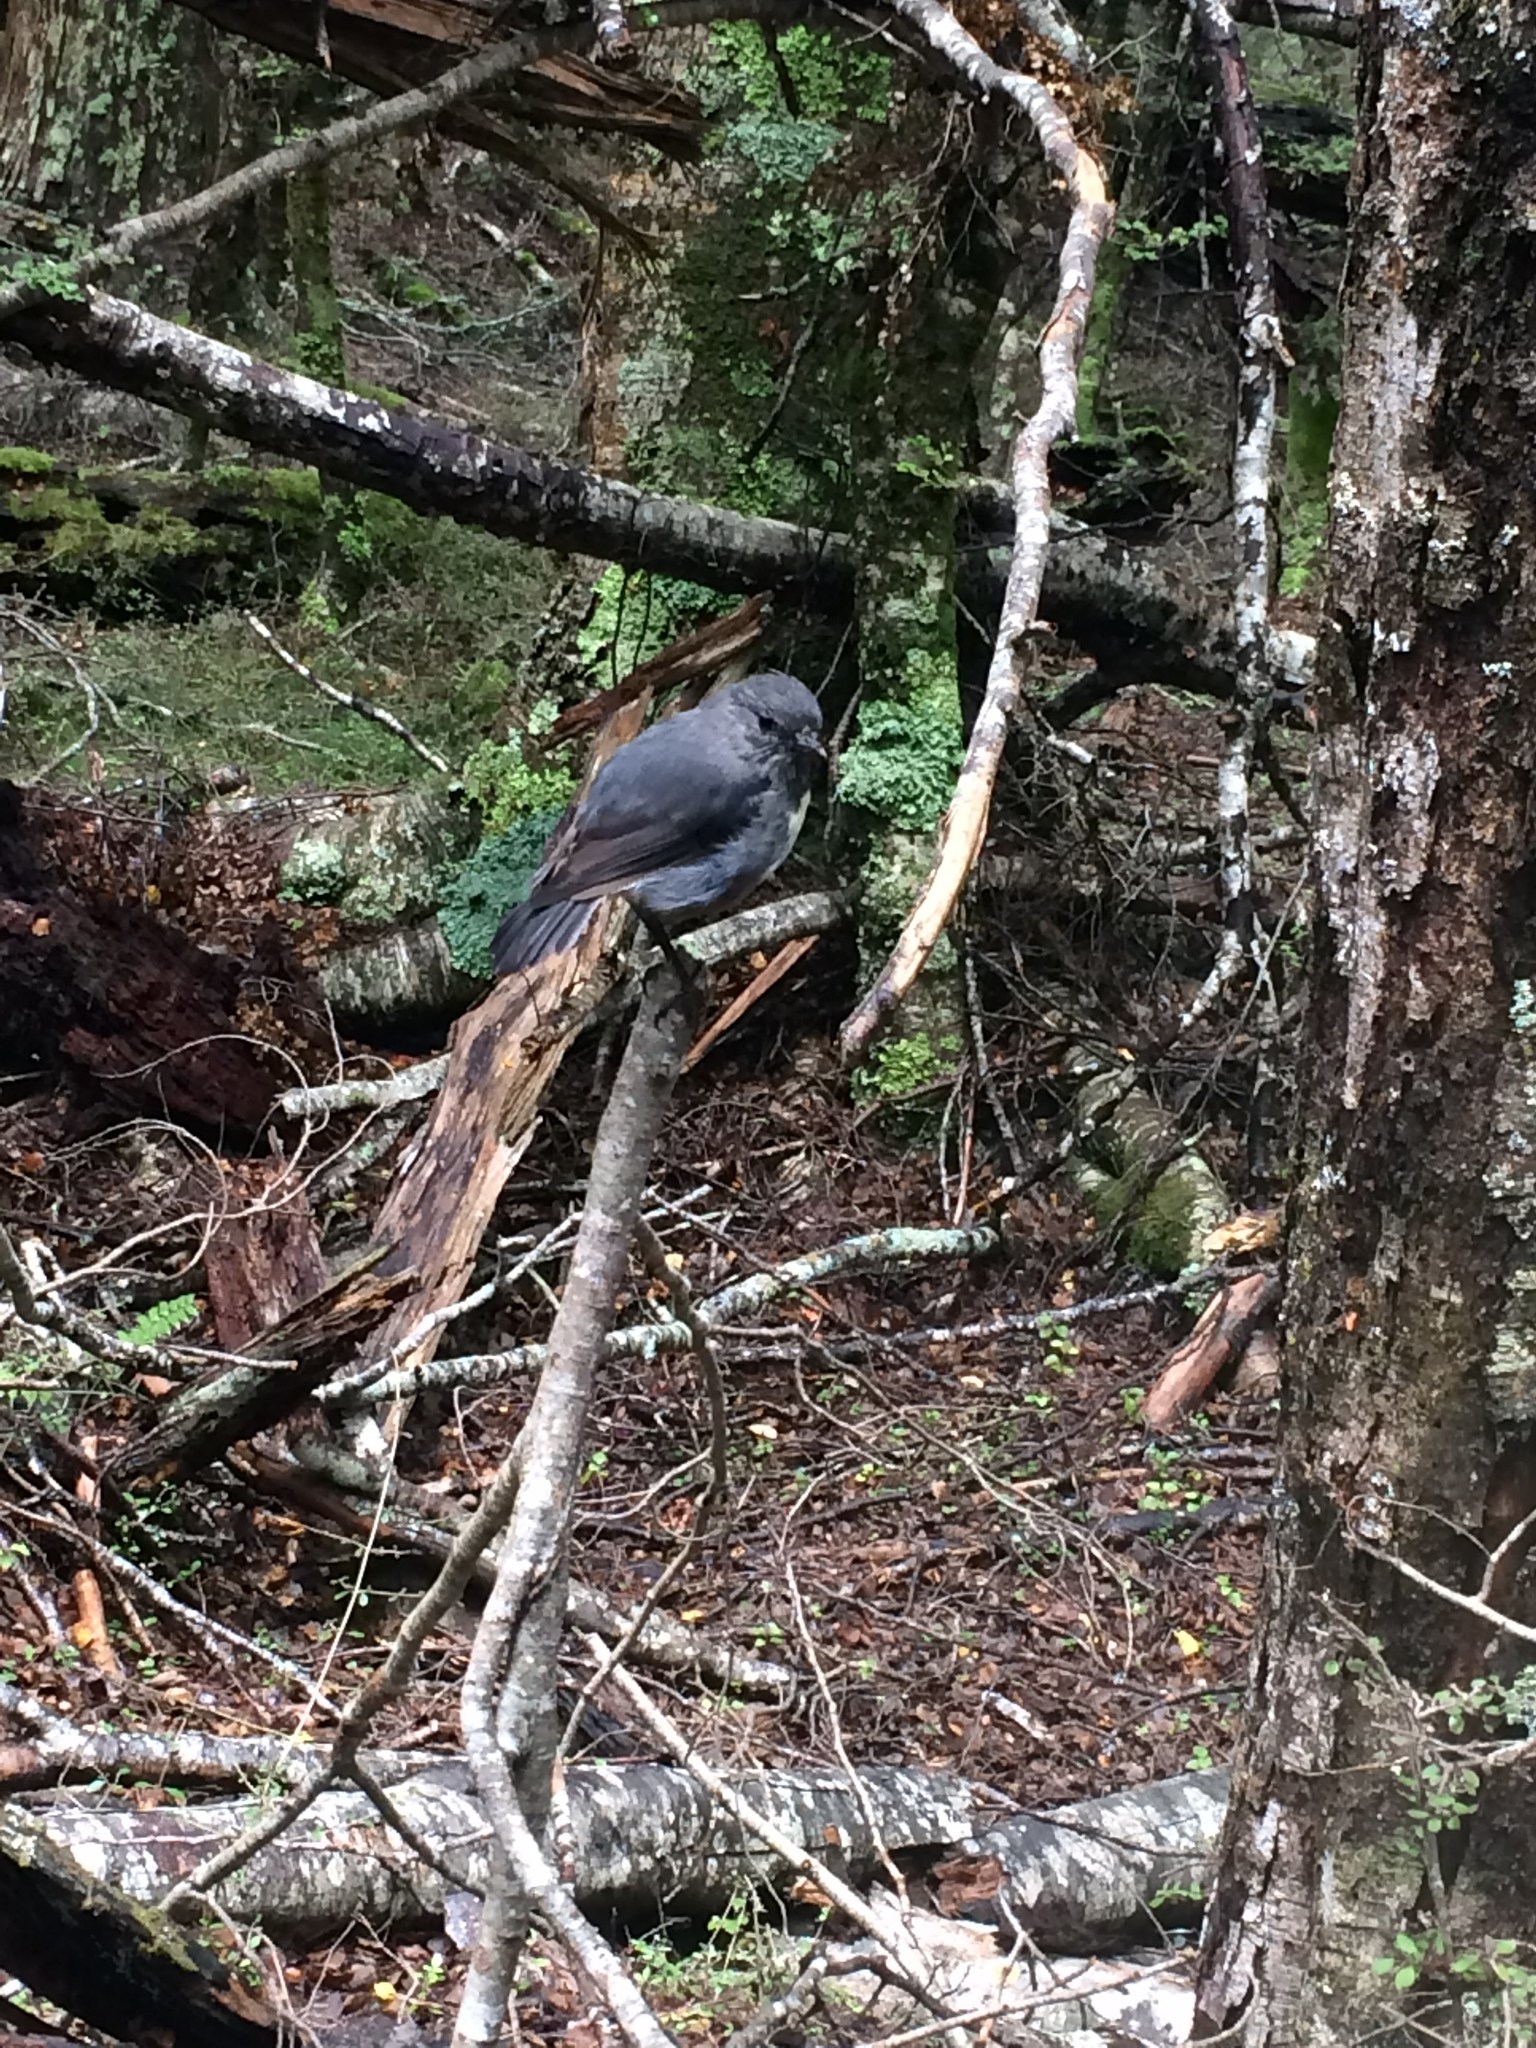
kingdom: Animalia
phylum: Chordata
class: Aves
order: Passeriformes
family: Petroicidae
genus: Petroica
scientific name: Petroica australis
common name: New zealand robin
